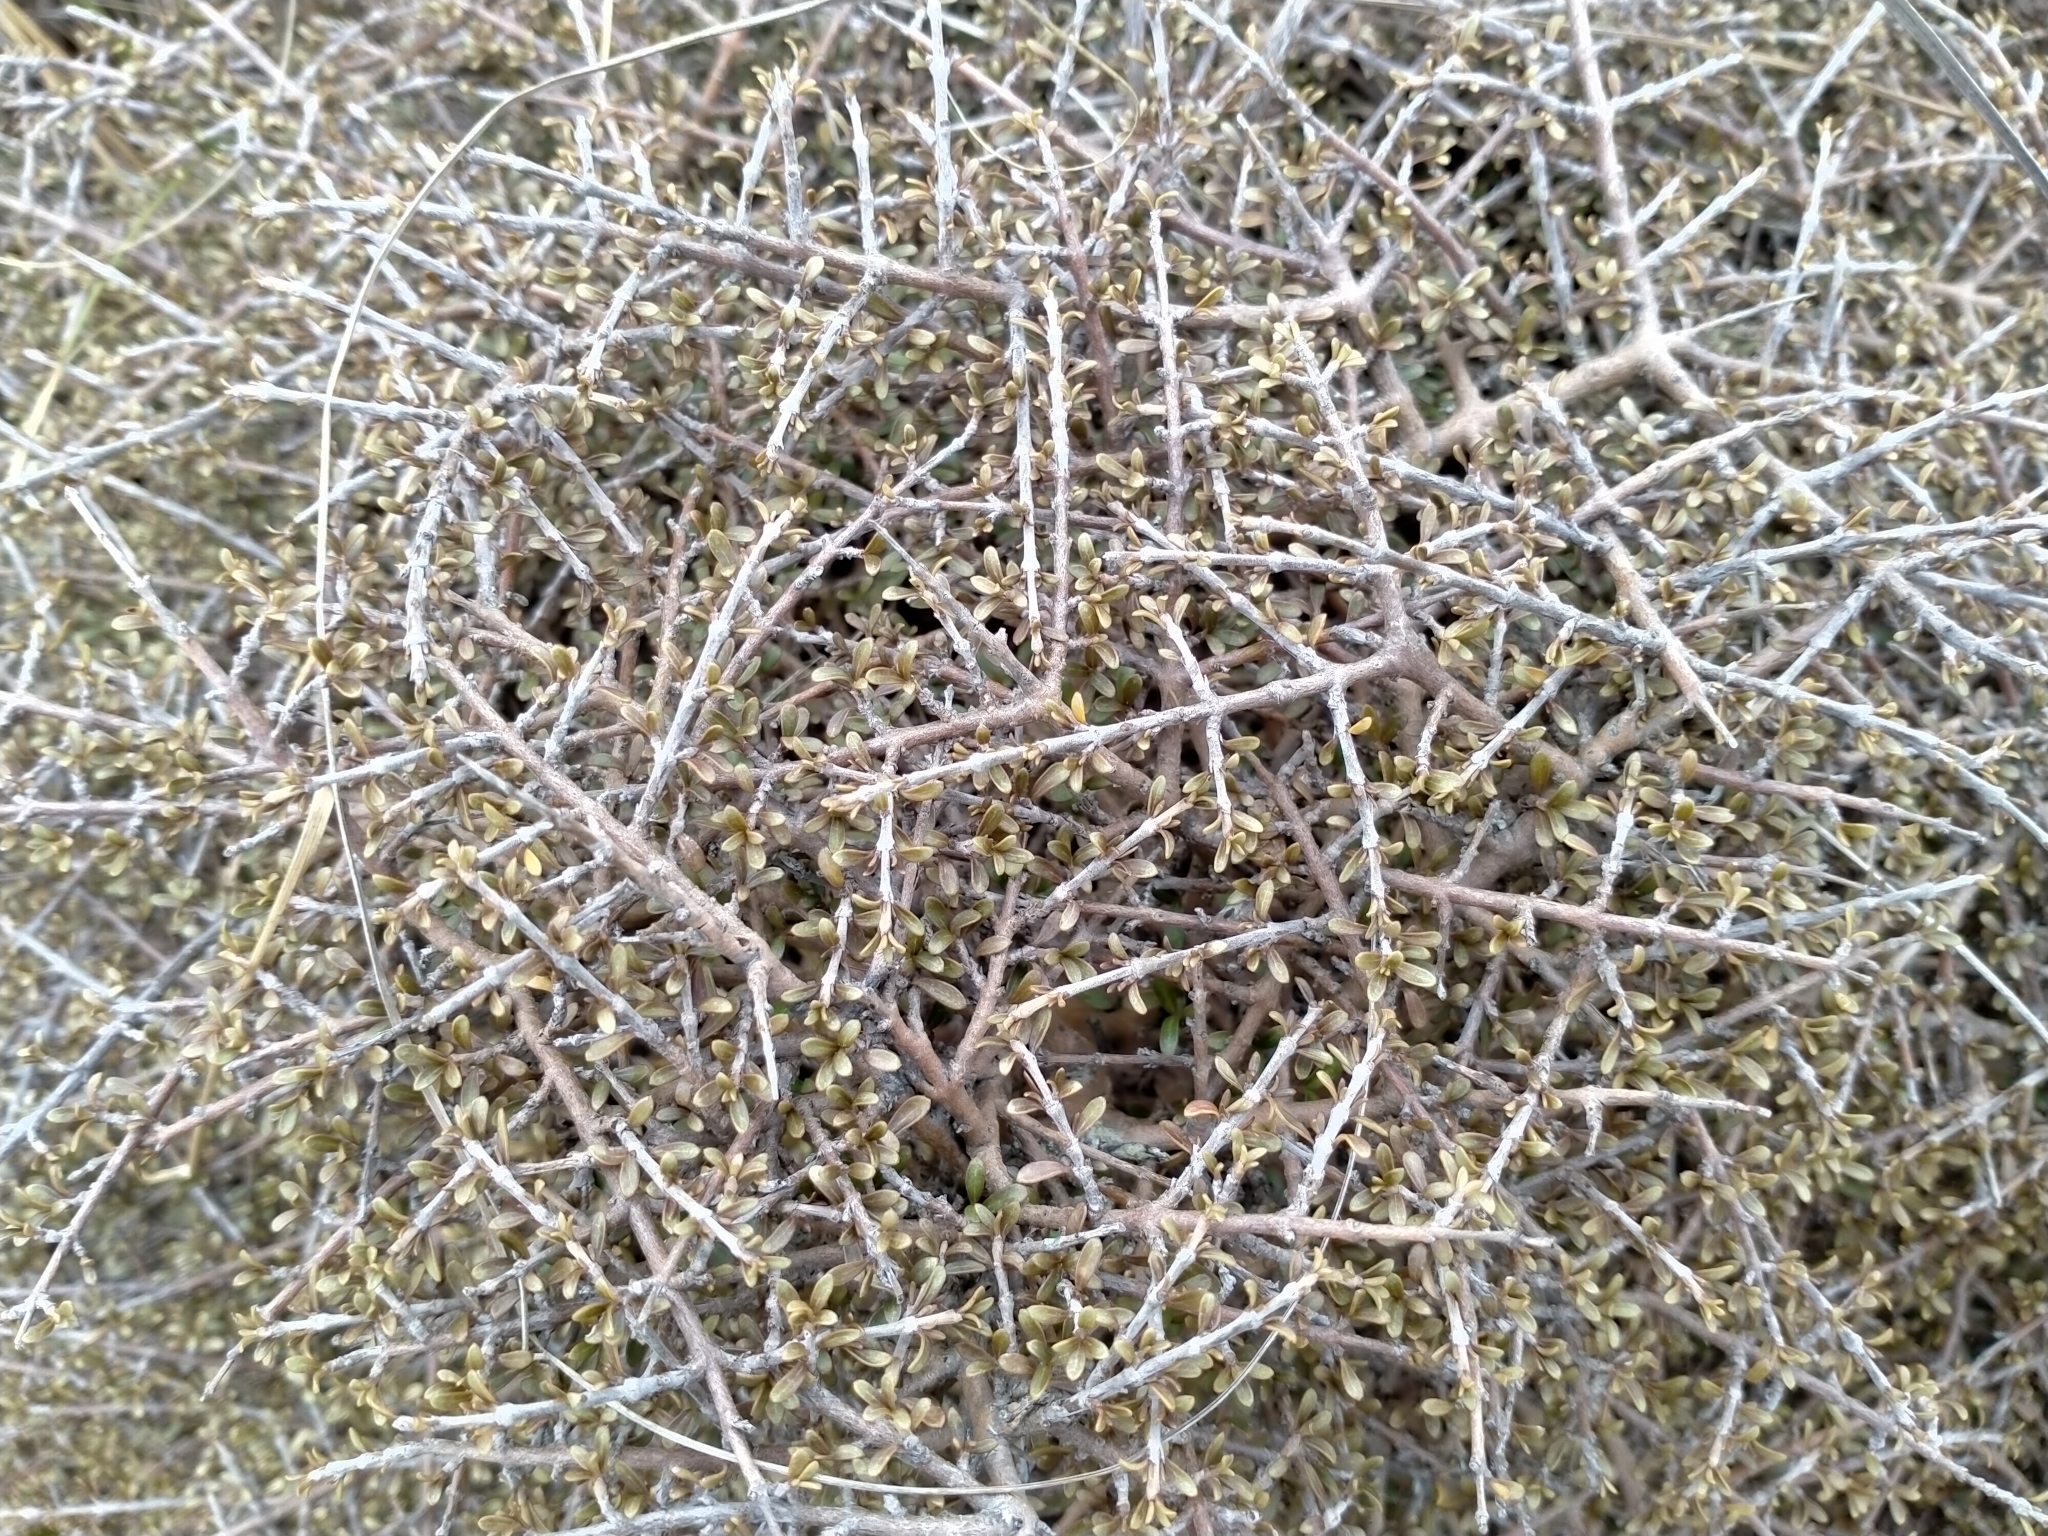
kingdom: Plantae
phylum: Tracheophyta
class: Magnoliopsida
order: Gentianales
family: Rubiaceae
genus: Coprosma
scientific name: Coprosma dumosa
